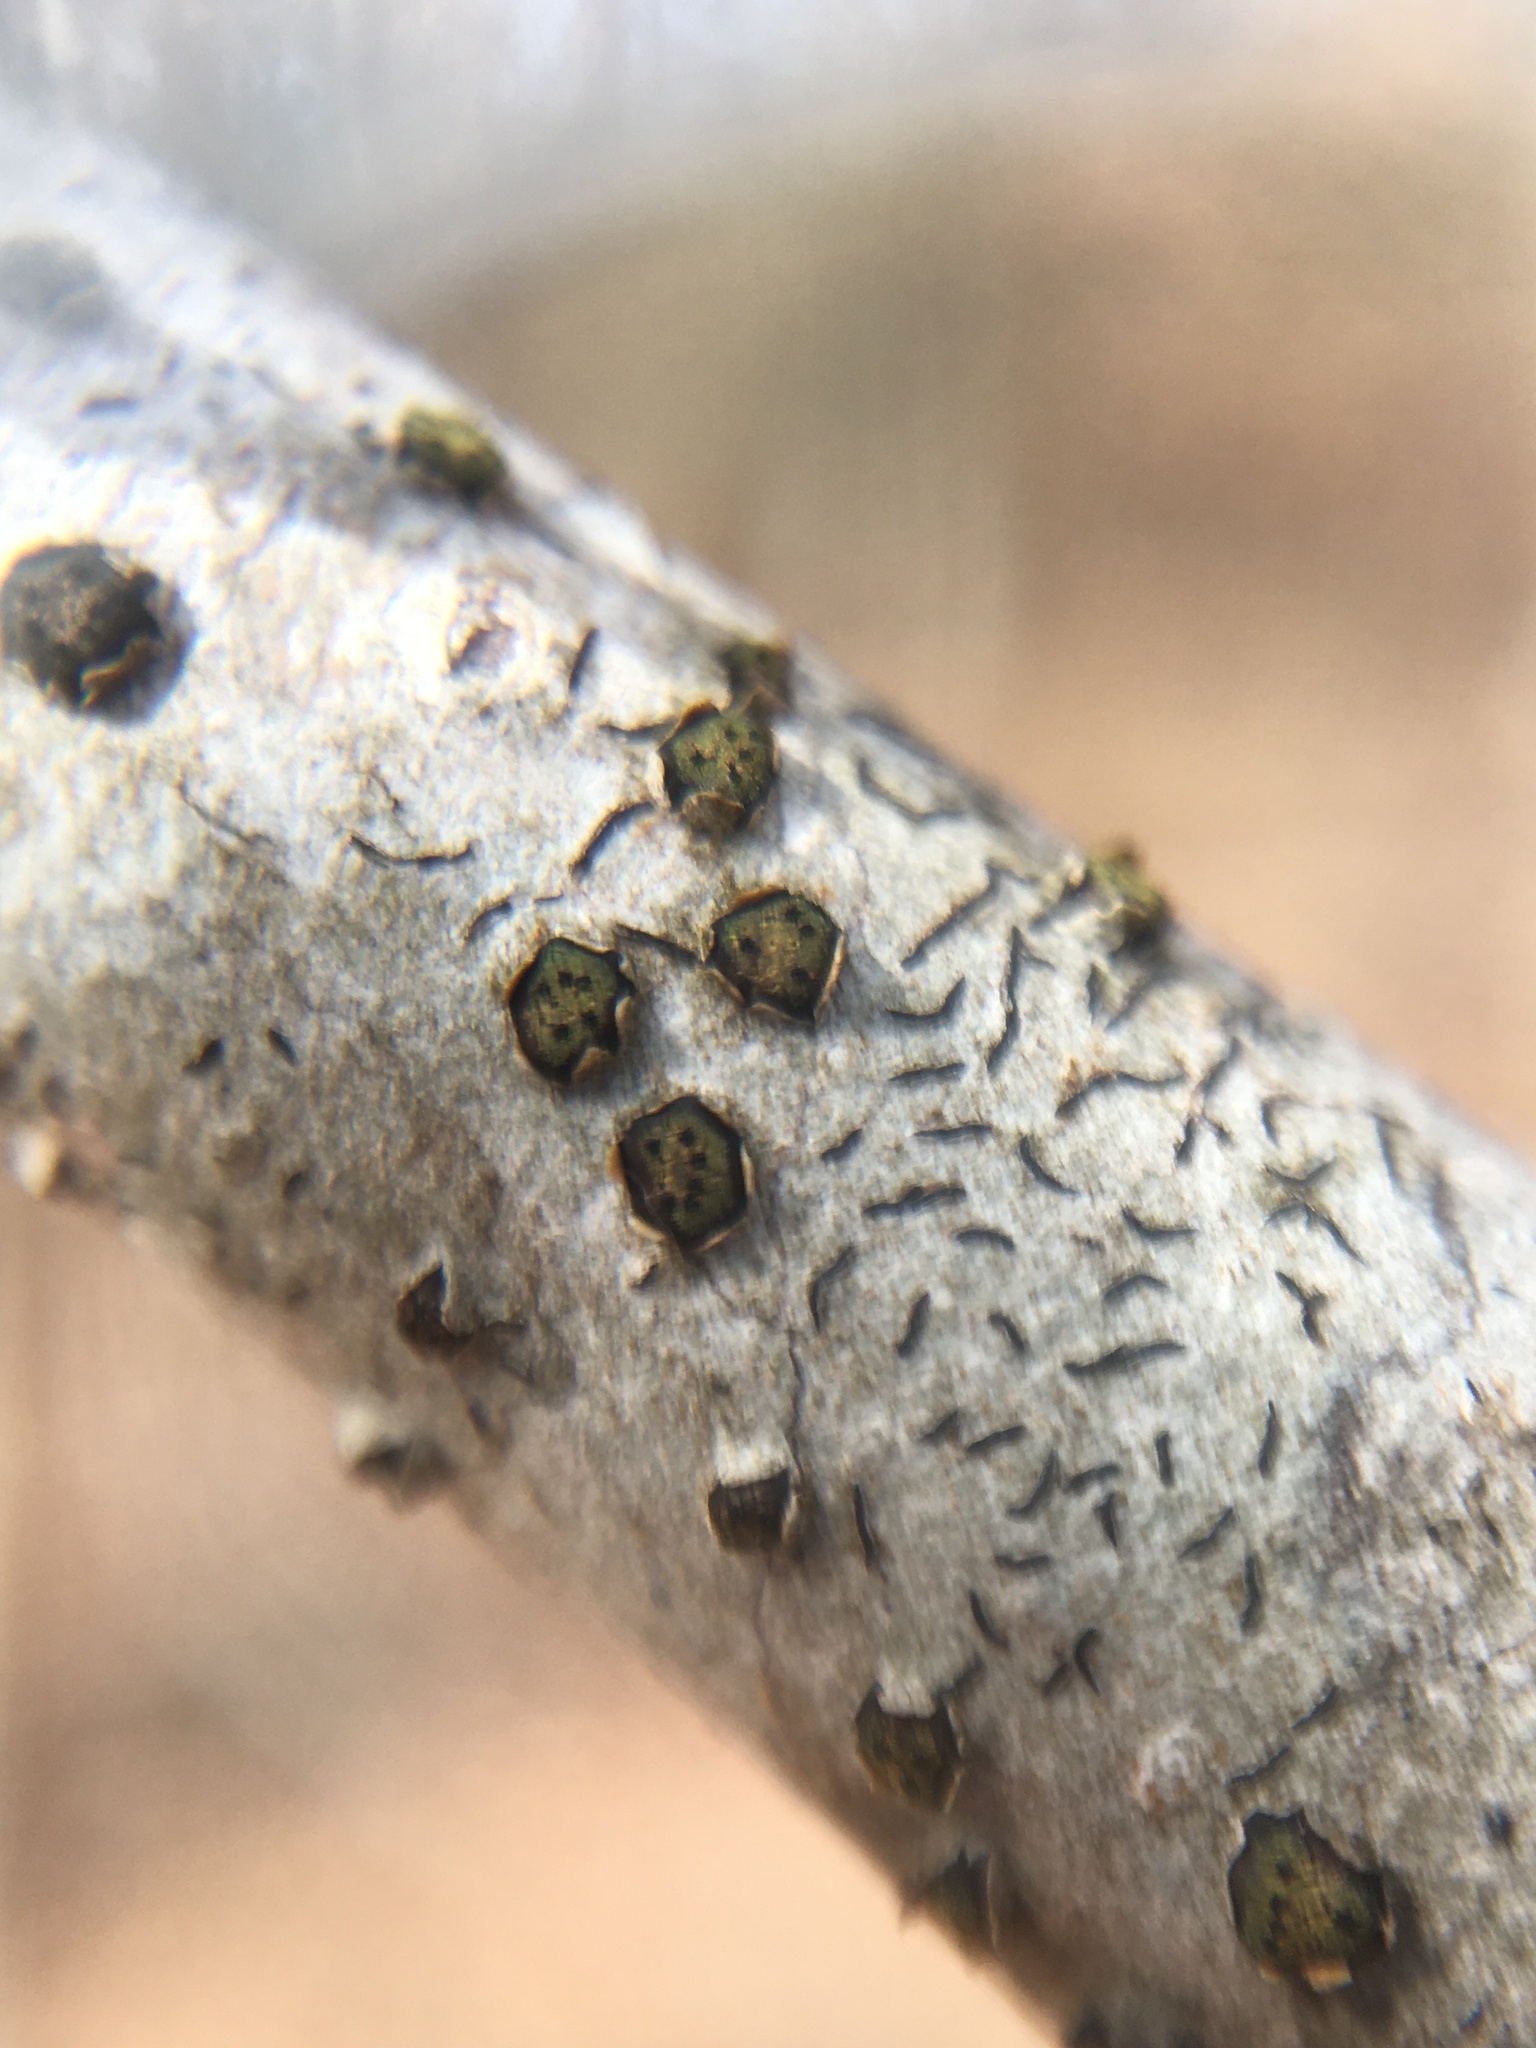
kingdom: Fungi
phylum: Ascomycota
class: Sordariomycetes
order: Xylariales
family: Diatrypaceae
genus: Diatrype
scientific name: Diatrype virescens
